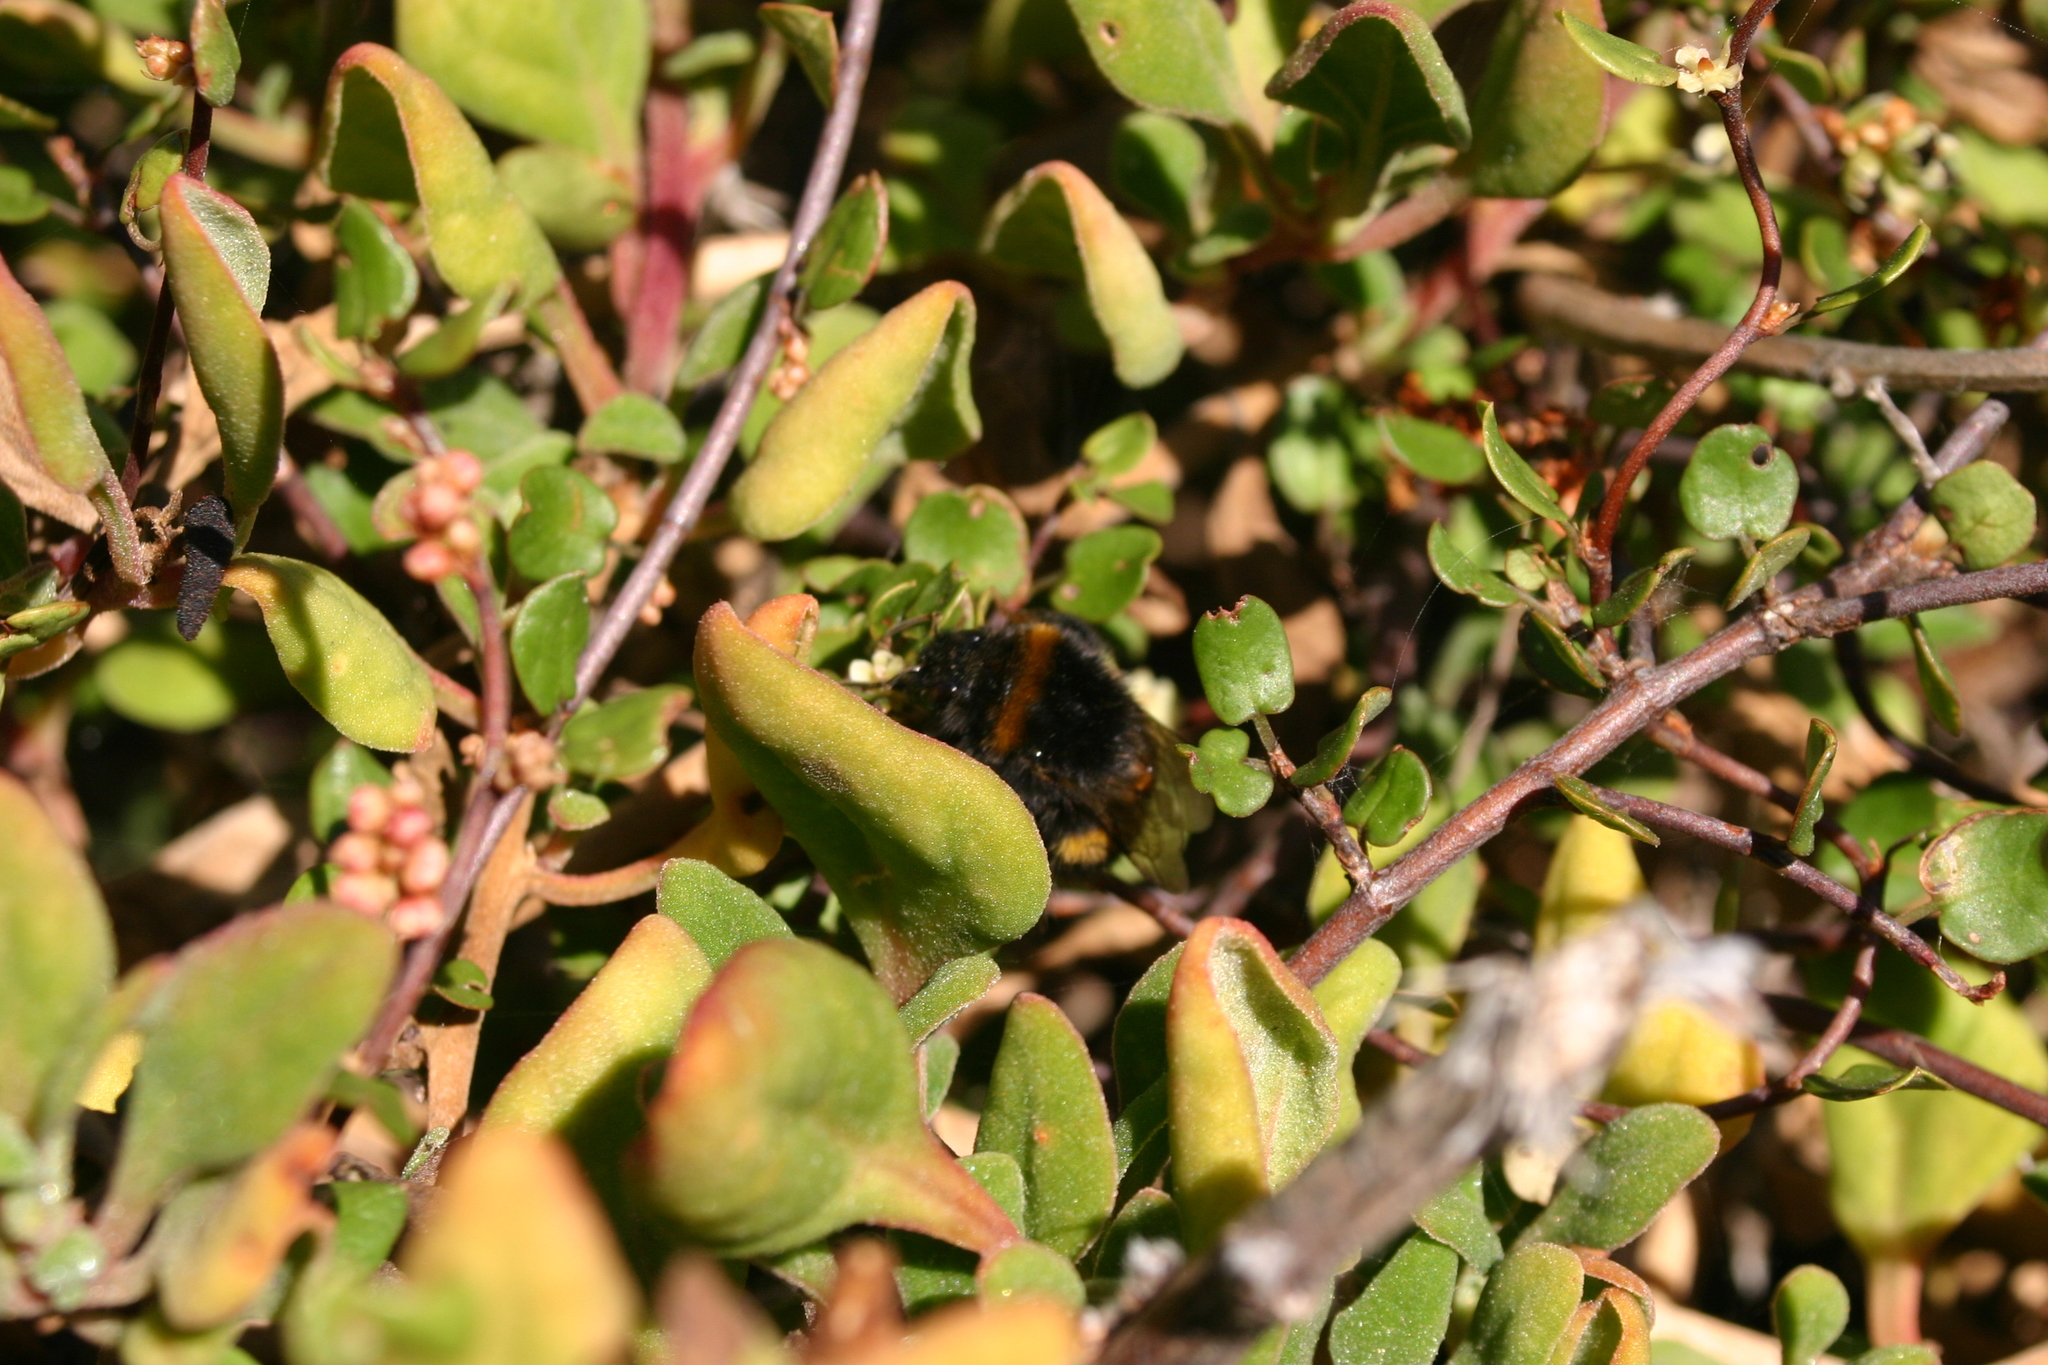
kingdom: Plantae
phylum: Tracheophyta
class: Magnoliopsida
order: Caryophyllales
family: Aizoaceae
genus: Tetragonia
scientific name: Tetragonia implexicoma
